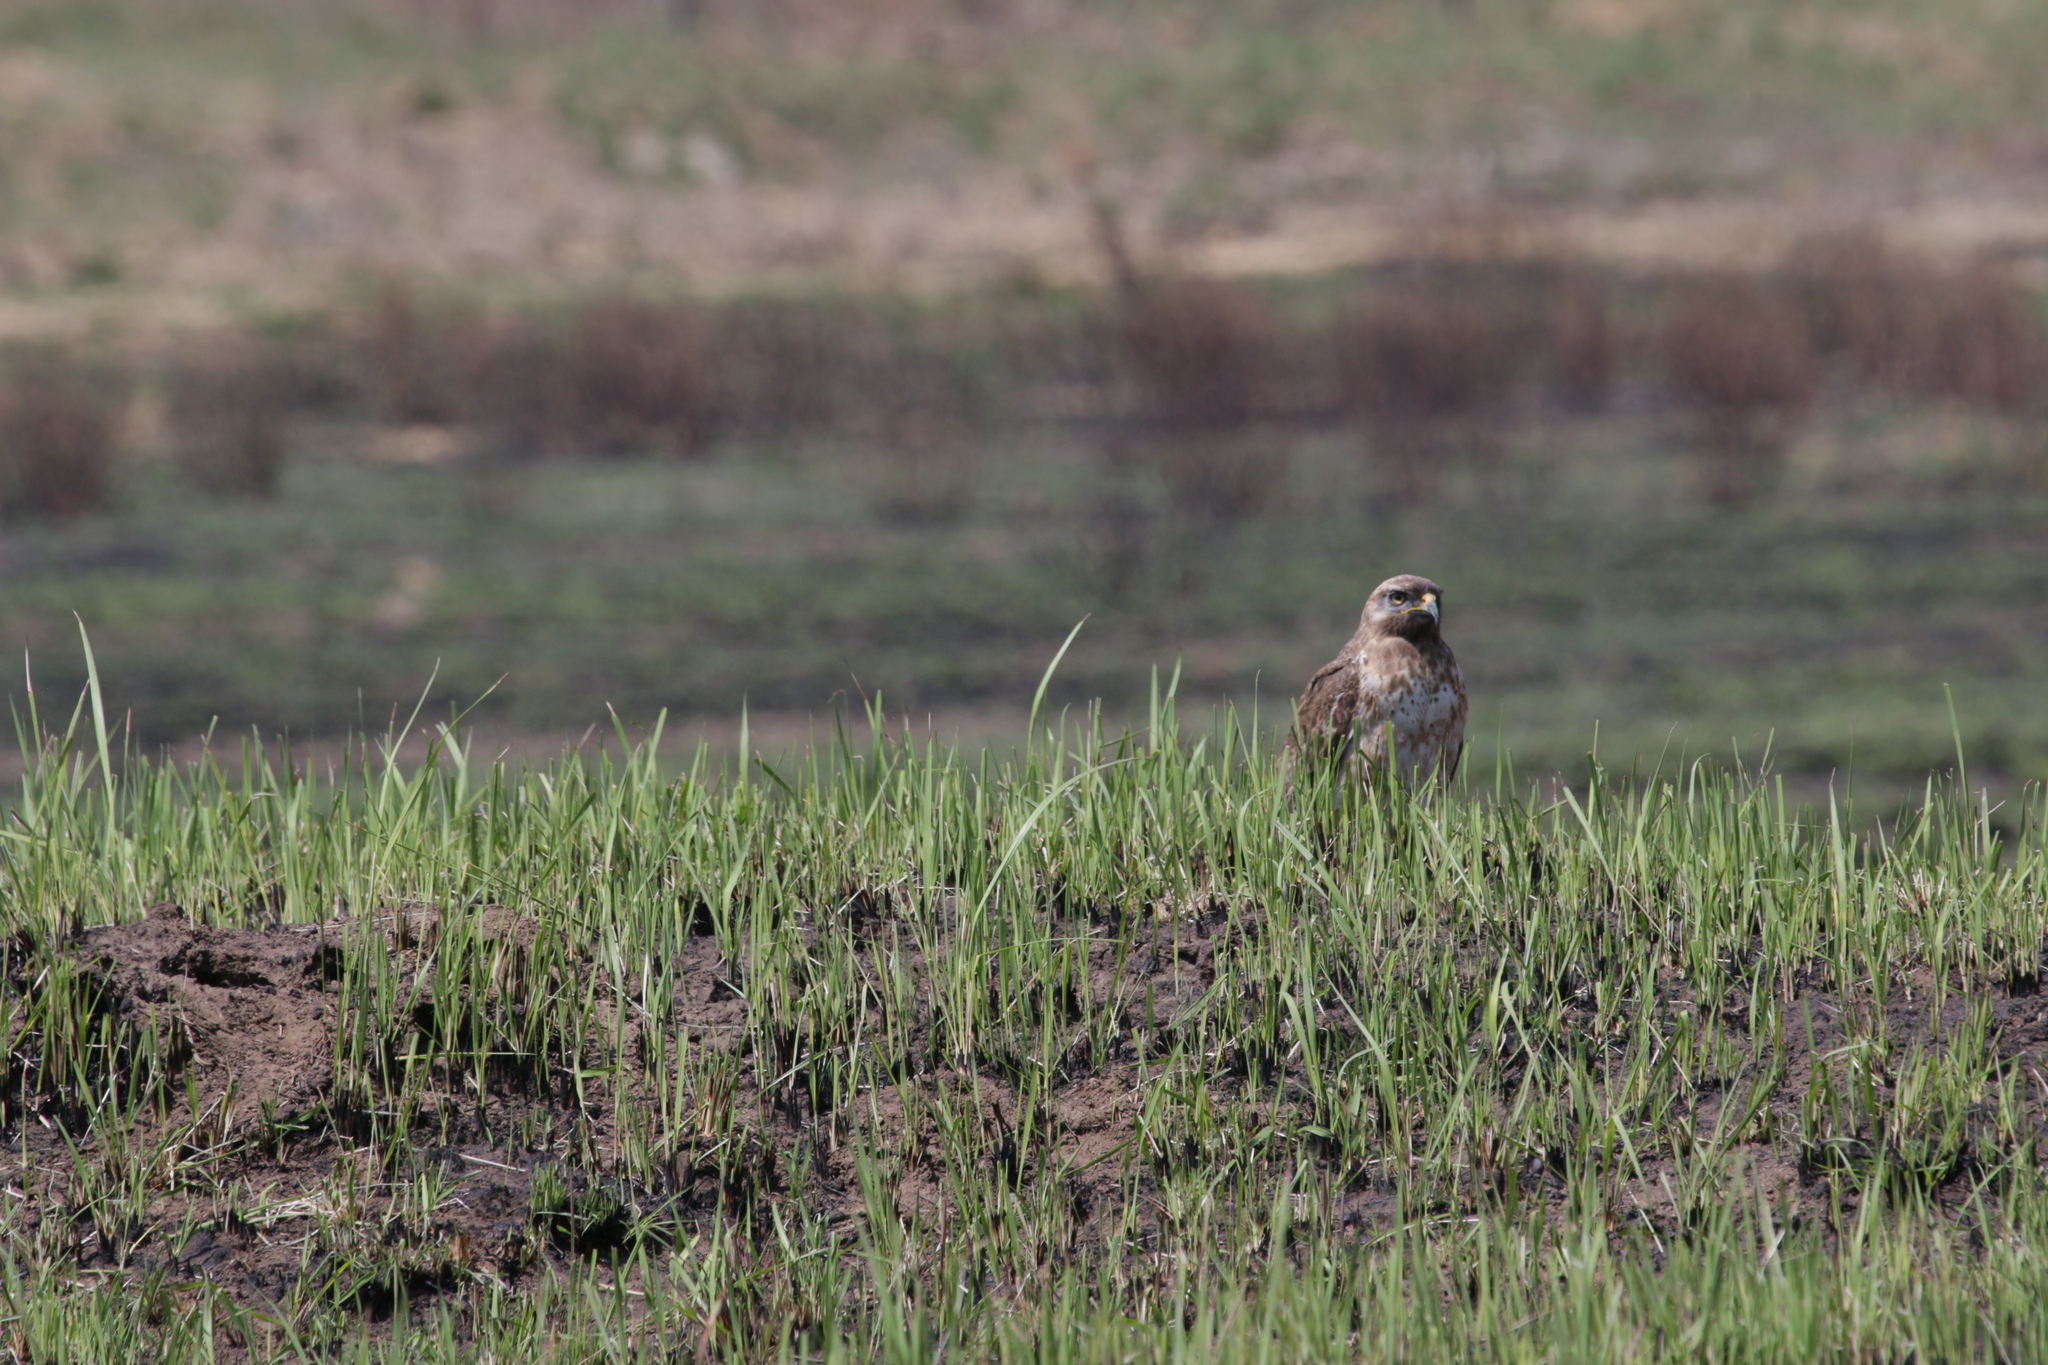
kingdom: Animalia
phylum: Chordata
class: Aves
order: Accipitriformes
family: Accipitridae
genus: Buteo
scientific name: Buteo rufofuscus
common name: Jackal buzzard
